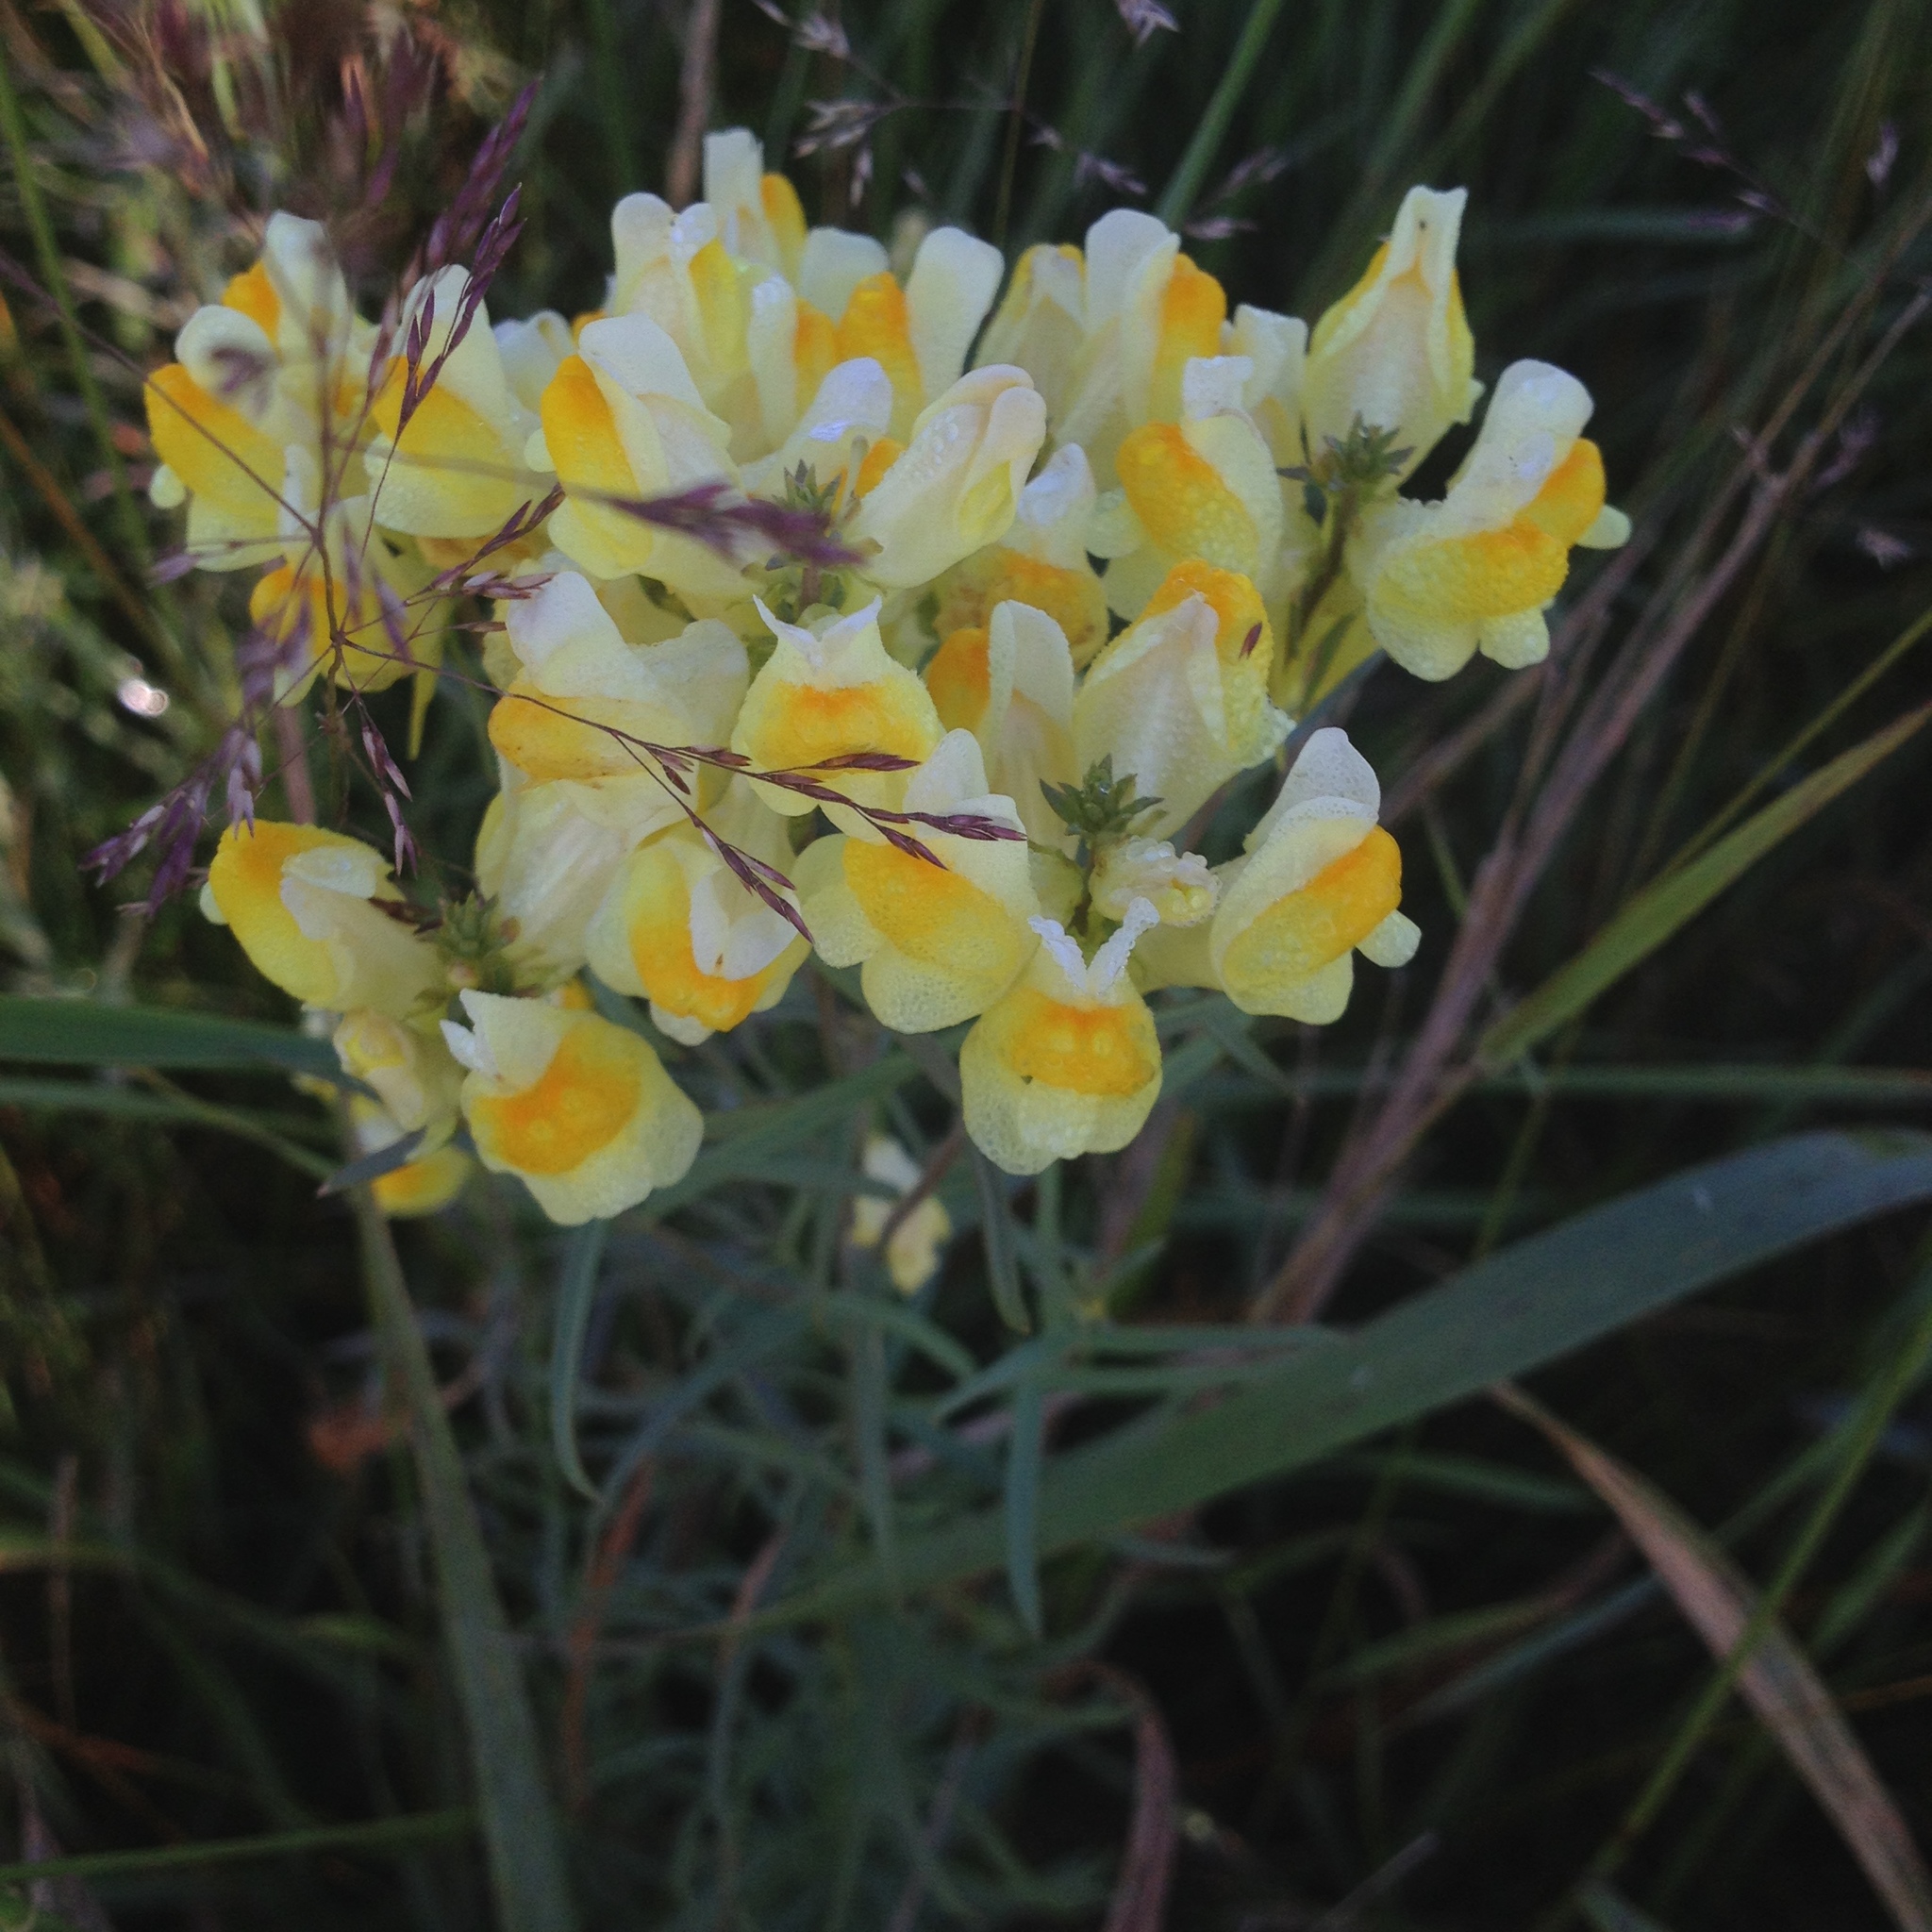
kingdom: Plantae
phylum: Tracheophyta
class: Magnoliopsida
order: Lamiales
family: Plantaginaceae
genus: Linaria
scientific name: Linaria vulgaris
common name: Butter and eggs
